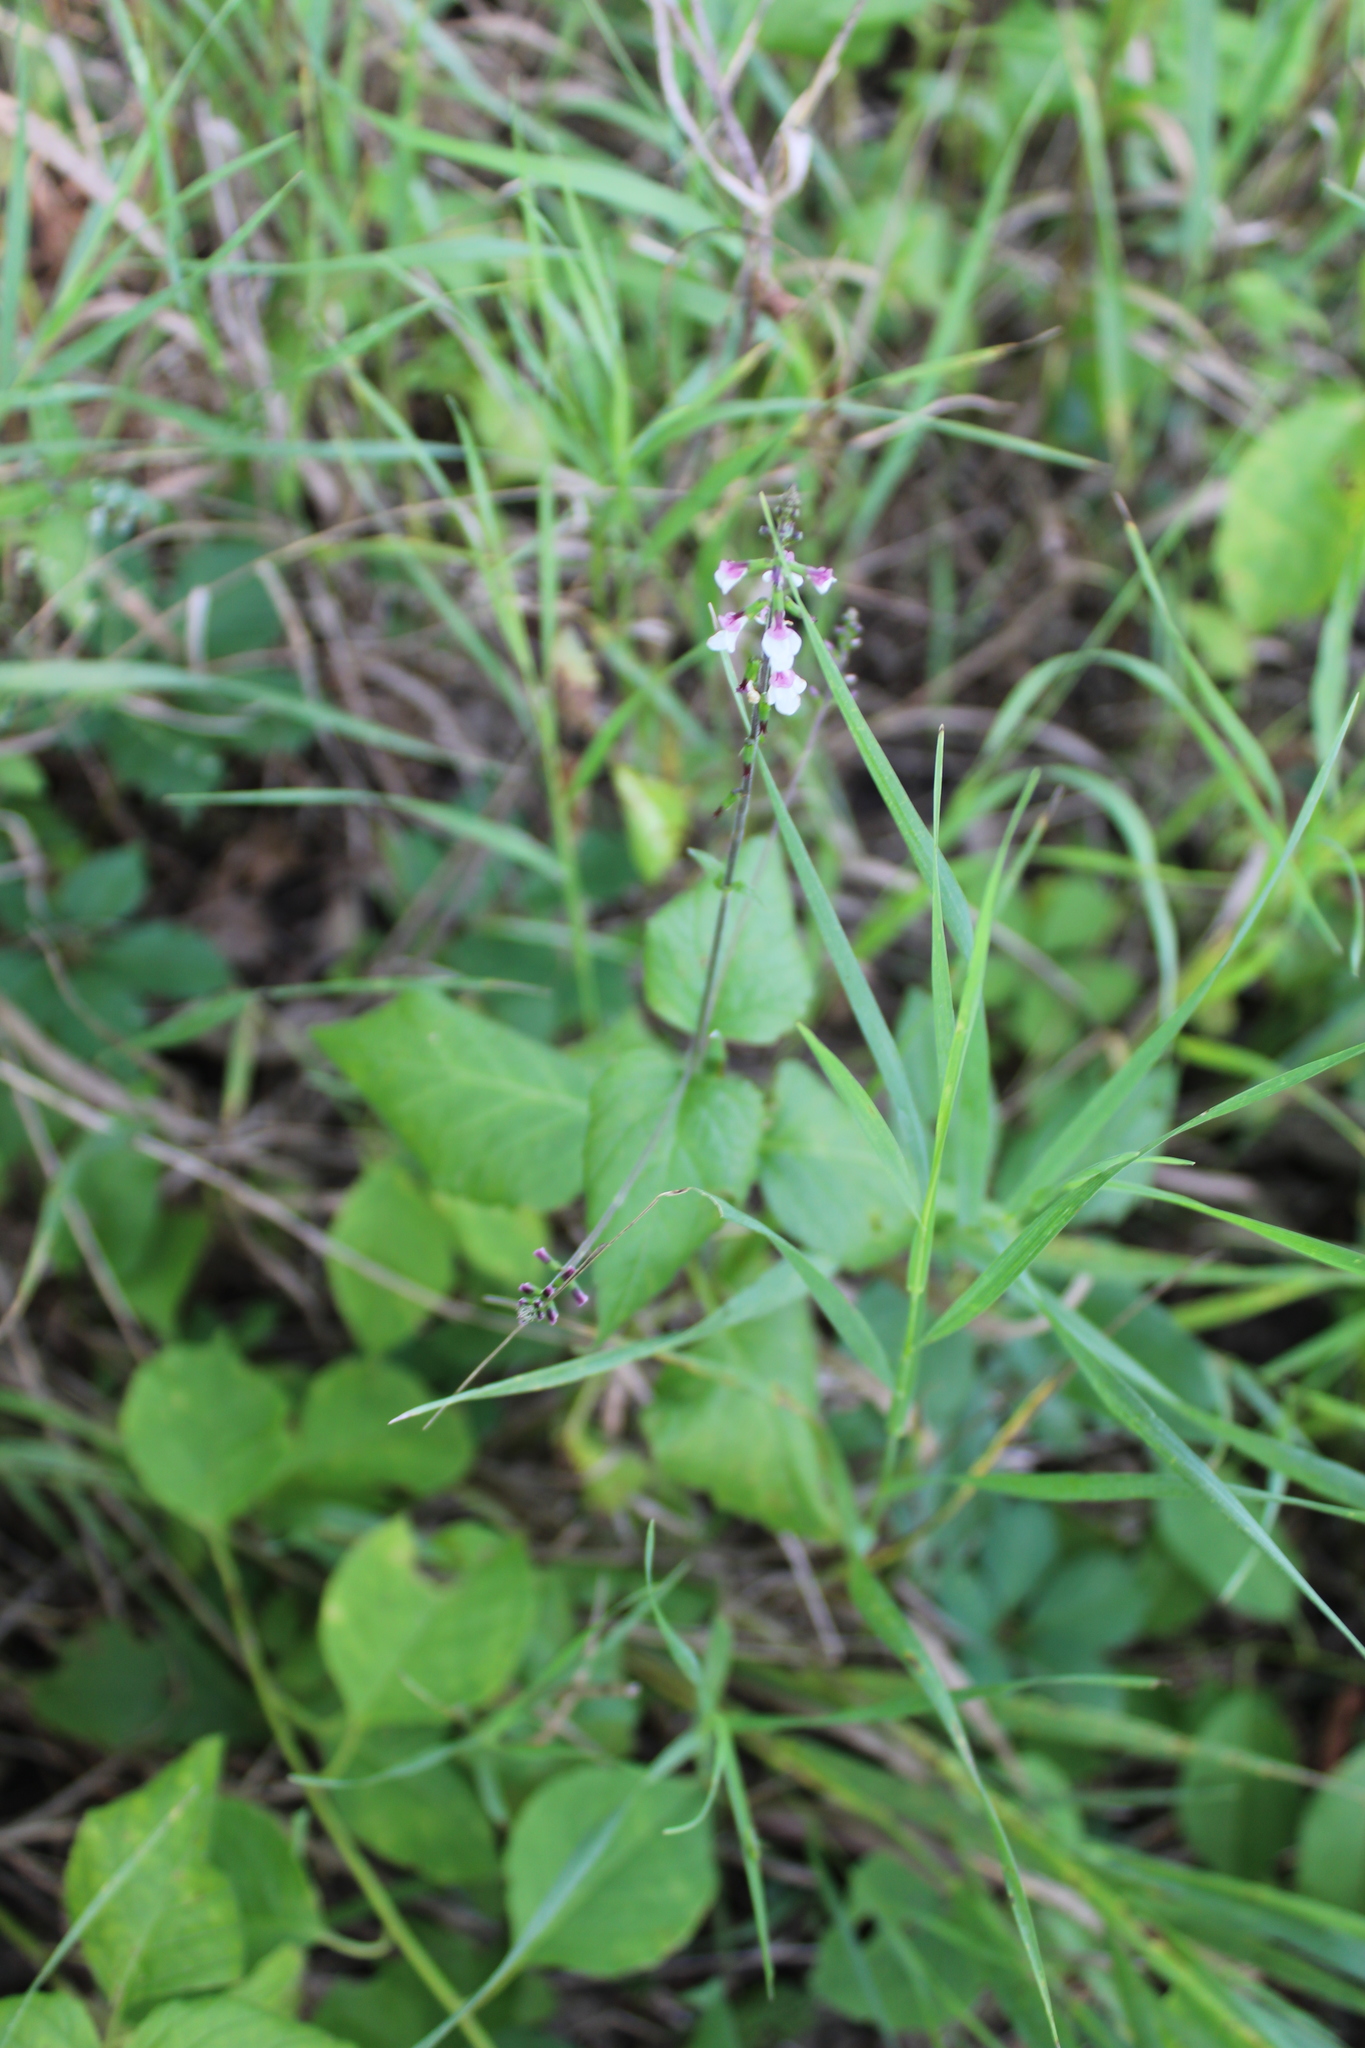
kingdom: Plantae
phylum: Tracheophyta
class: Magnoliopsida
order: Lamiales
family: Phrymaceae
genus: Phryma
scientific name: Phryma leptostachya
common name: American lopseed
